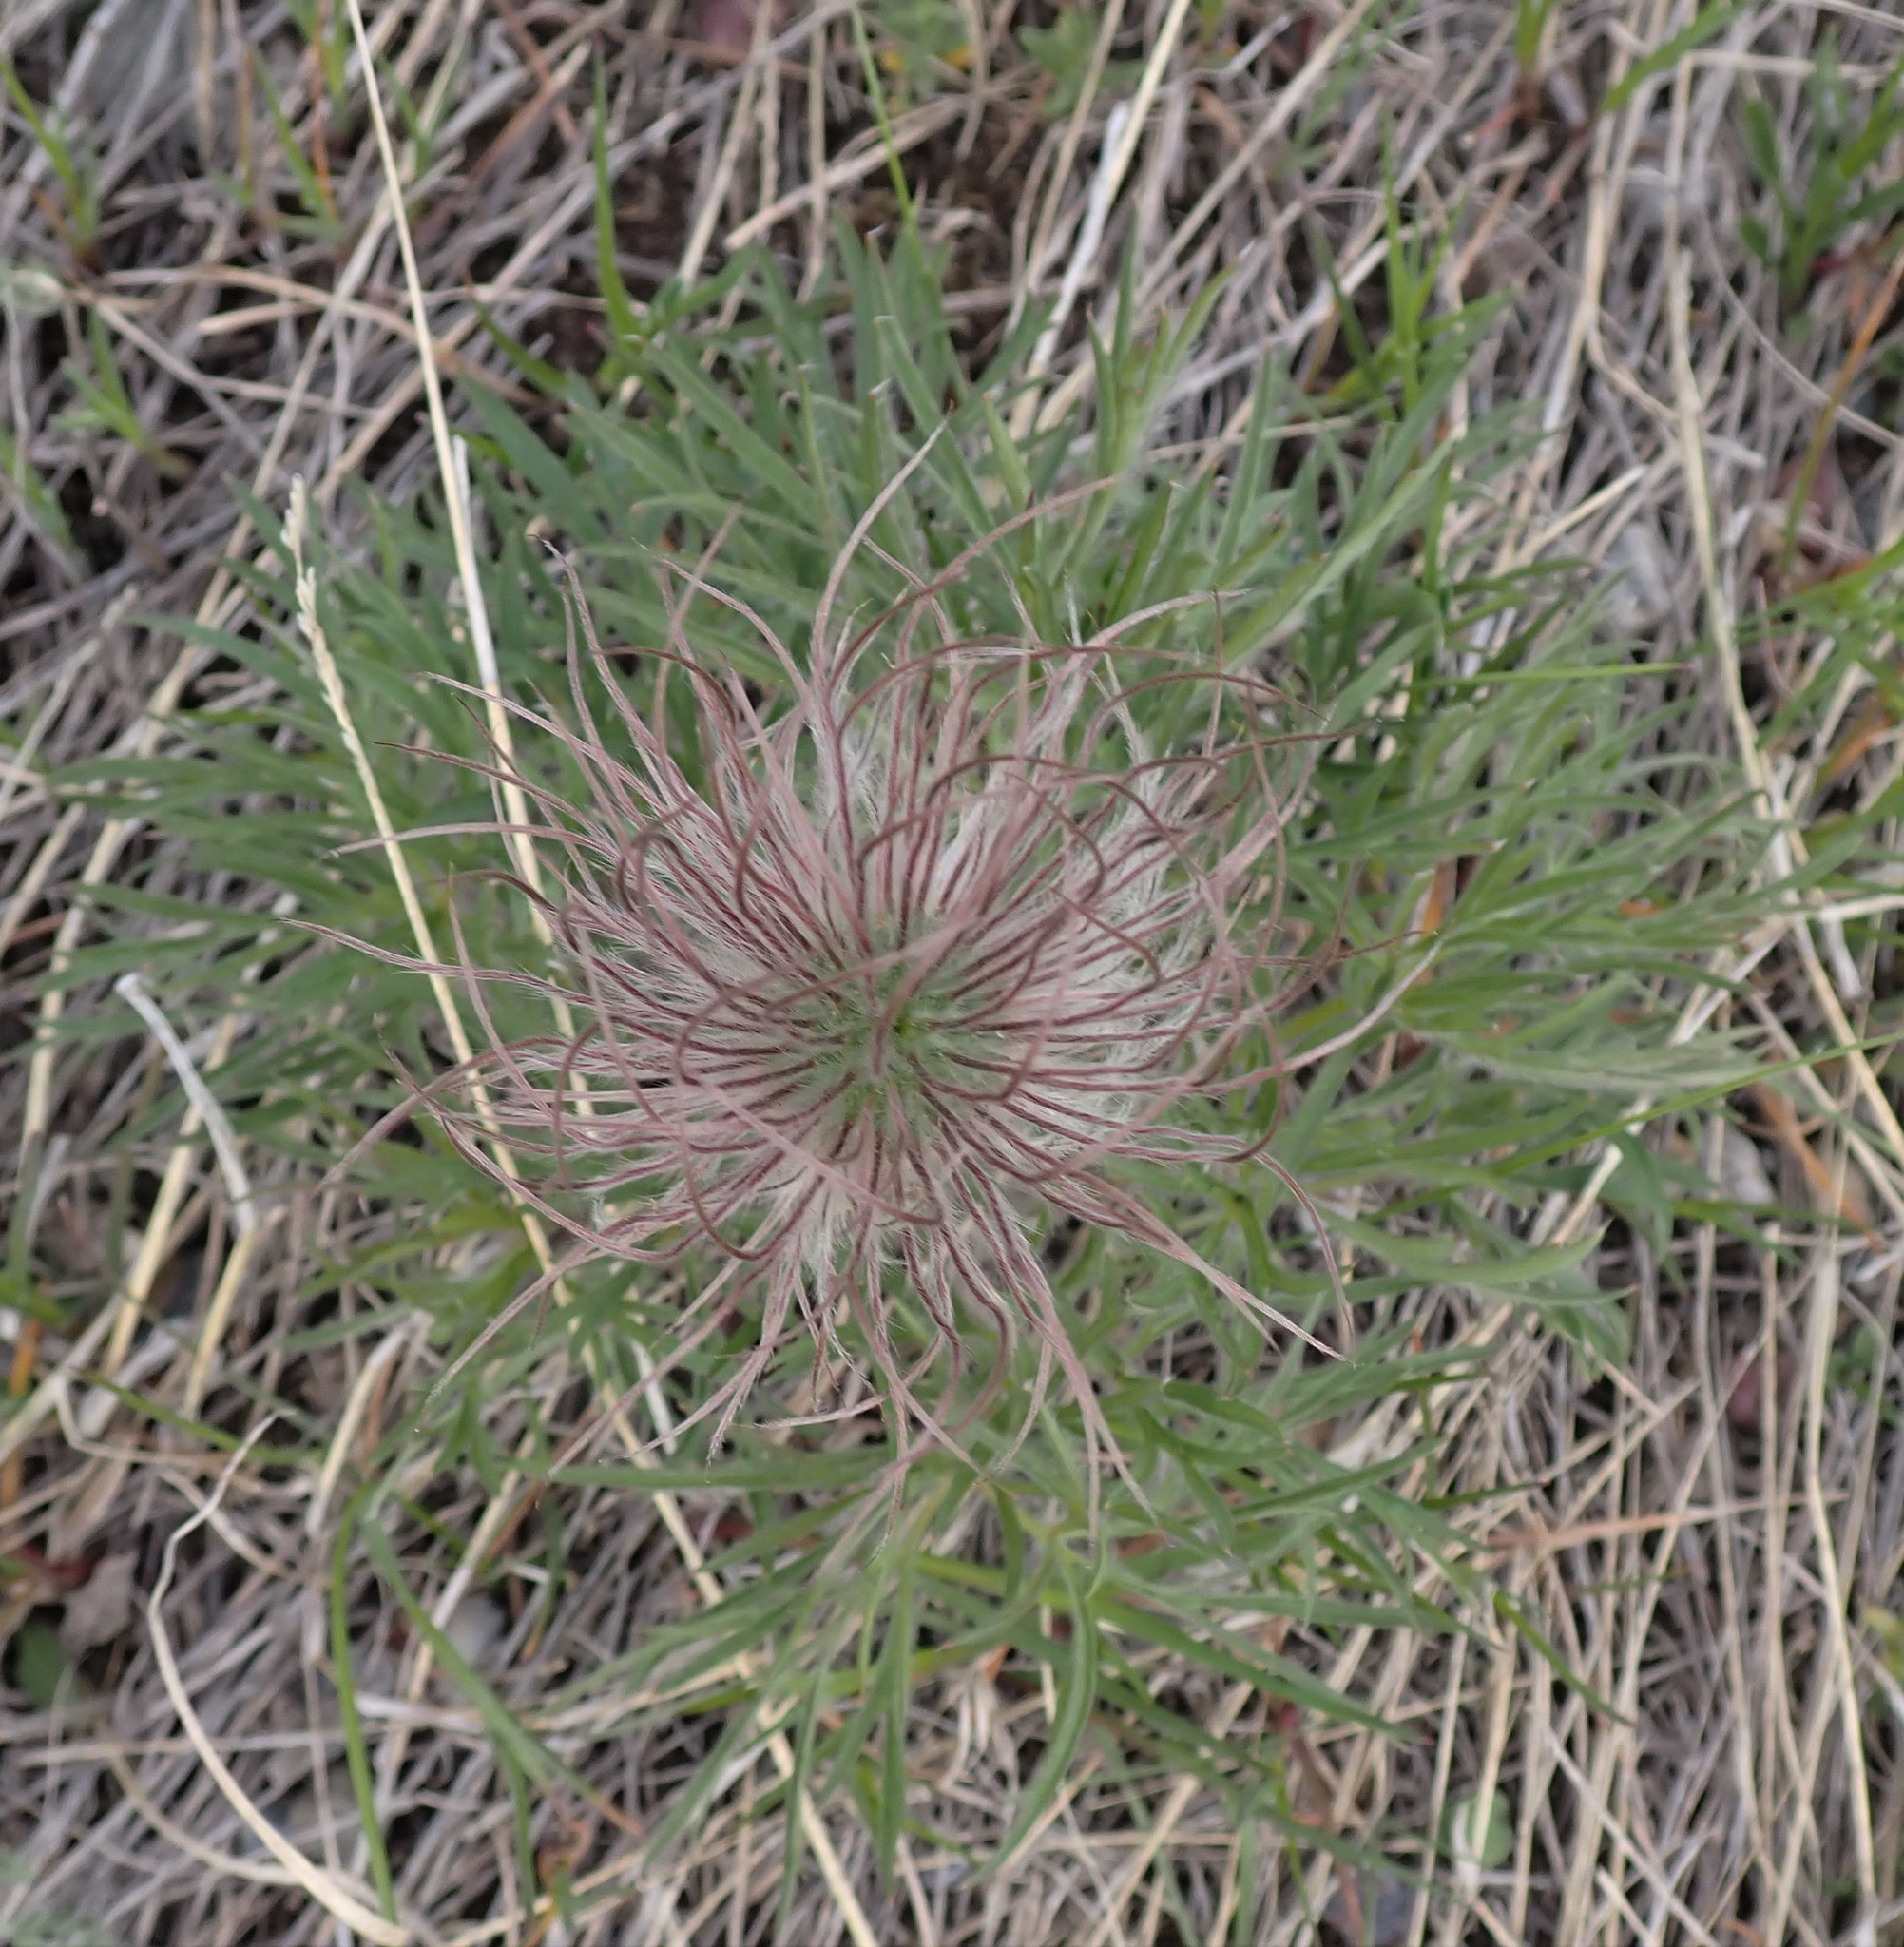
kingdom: Plantae
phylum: Tracheophyta
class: Magnoliopsida
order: Ranunculales
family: Ranunculaceae
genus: Pulsatilla
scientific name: Pulsatilla nuttalliana
